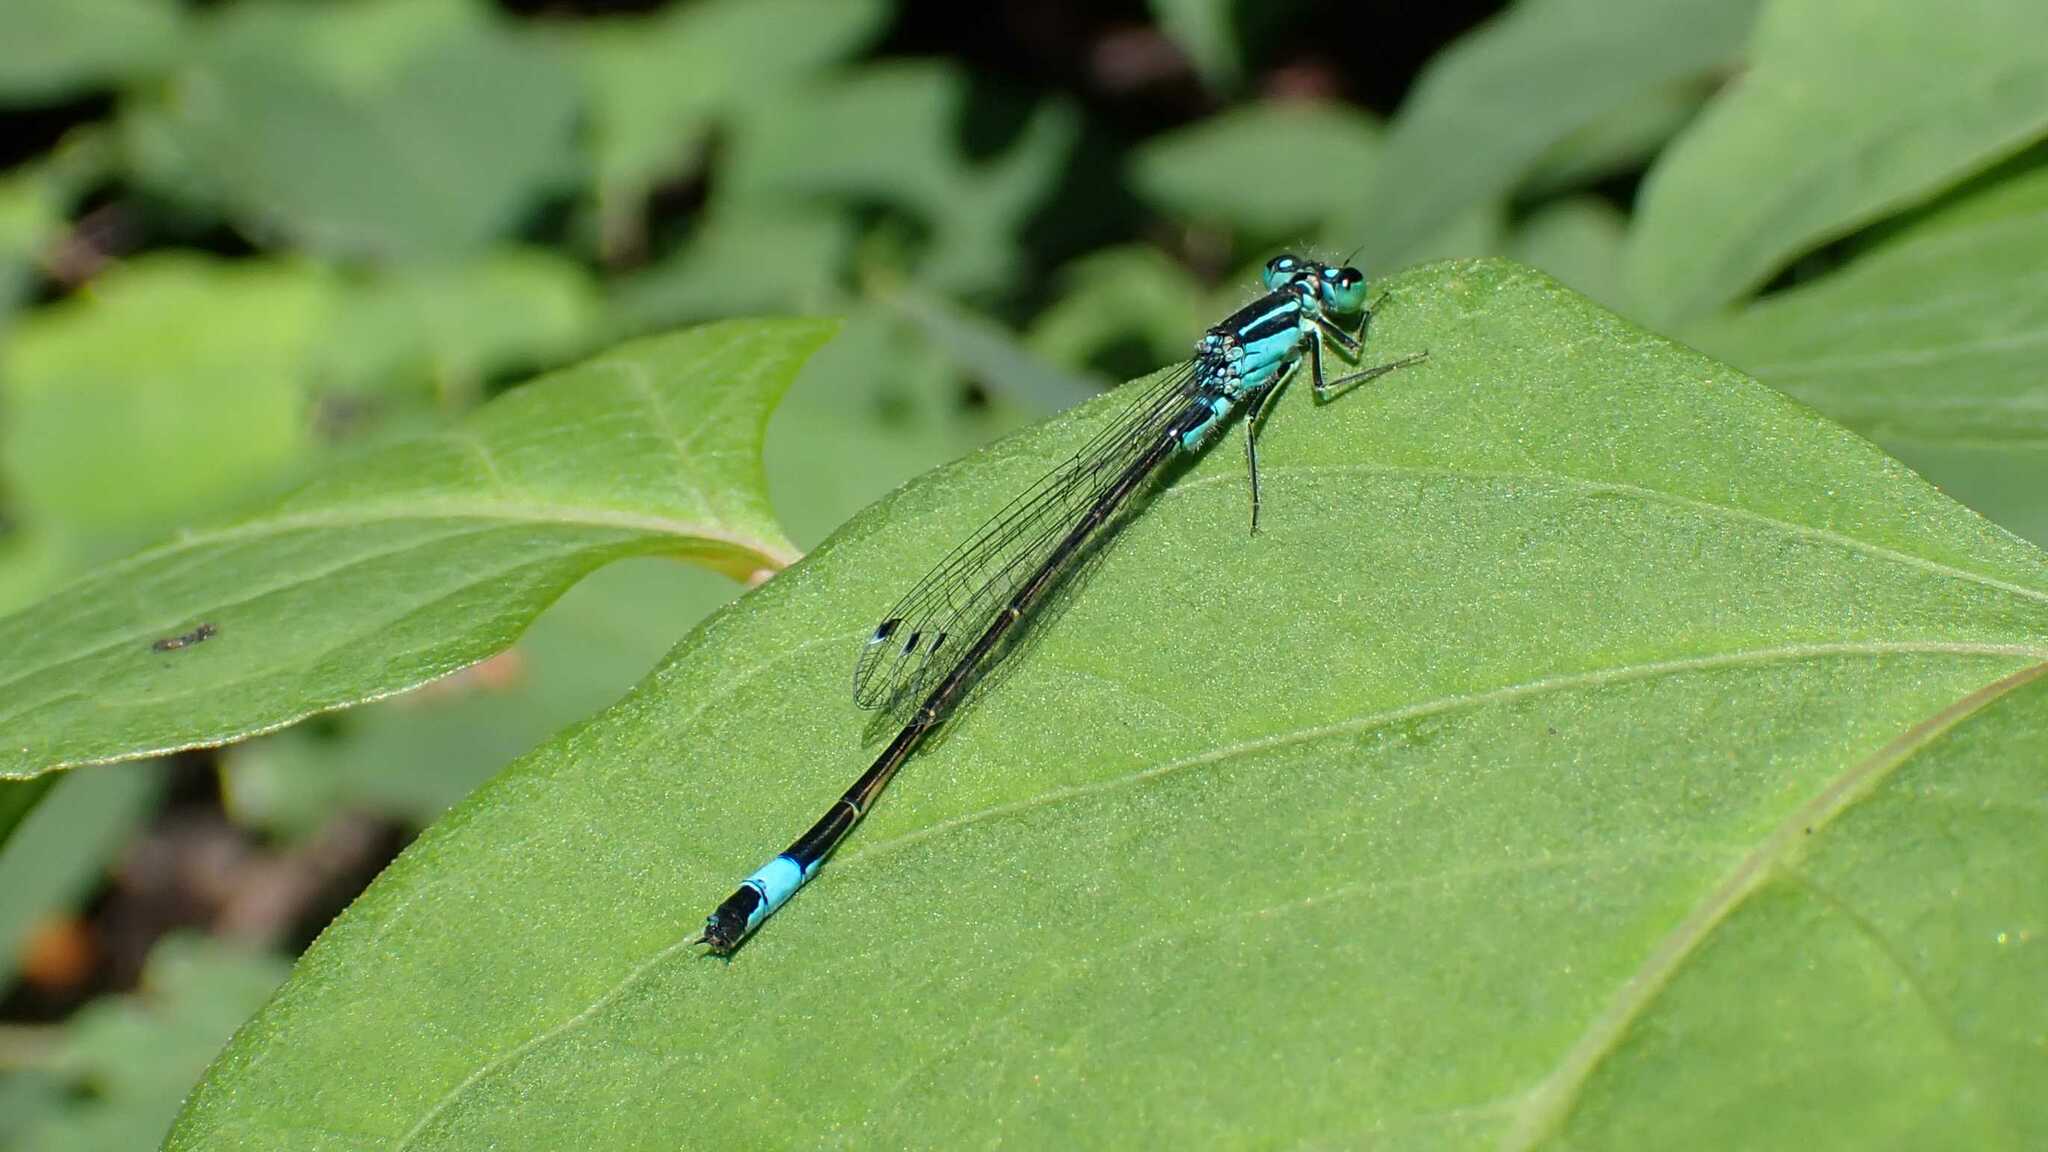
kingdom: Animalia
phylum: Arthropoda
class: Insecta
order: Odonata
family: Coenagrionidae
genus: Ischnura
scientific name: Ischnura elegans
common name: Blue-tailed damselfly
